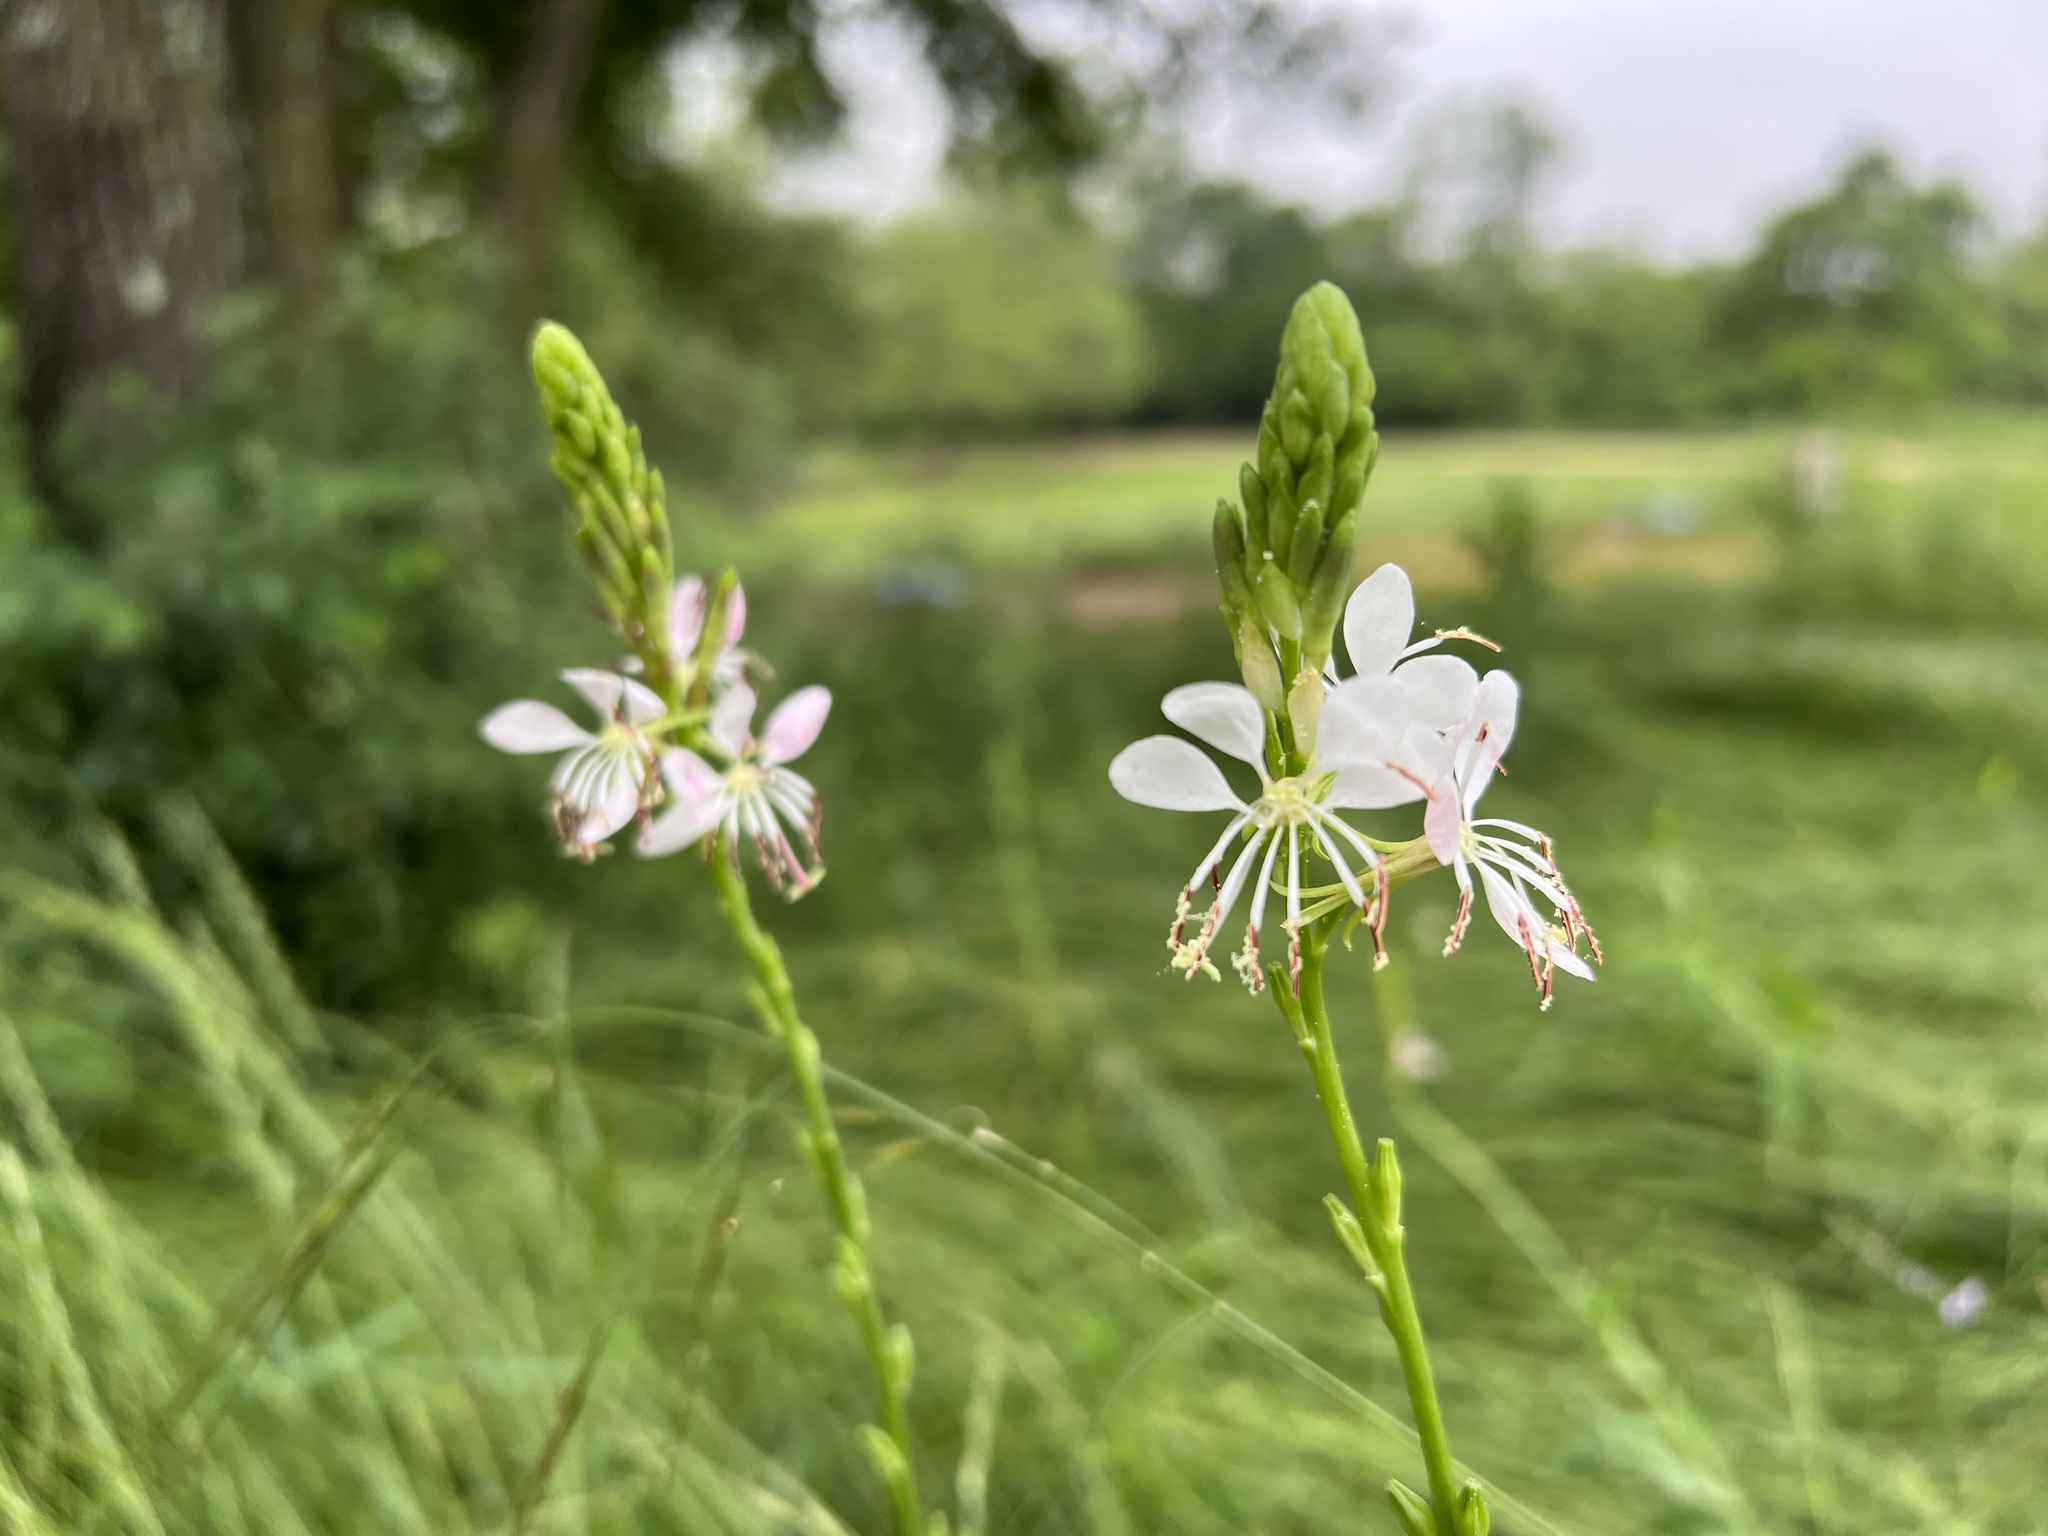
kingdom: Plantae
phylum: Tracheophyta
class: Magnoliopsida
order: Myrtales
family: Onagraceae
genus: Oenothera
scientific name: Oenothera suffulta
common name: Kisses
